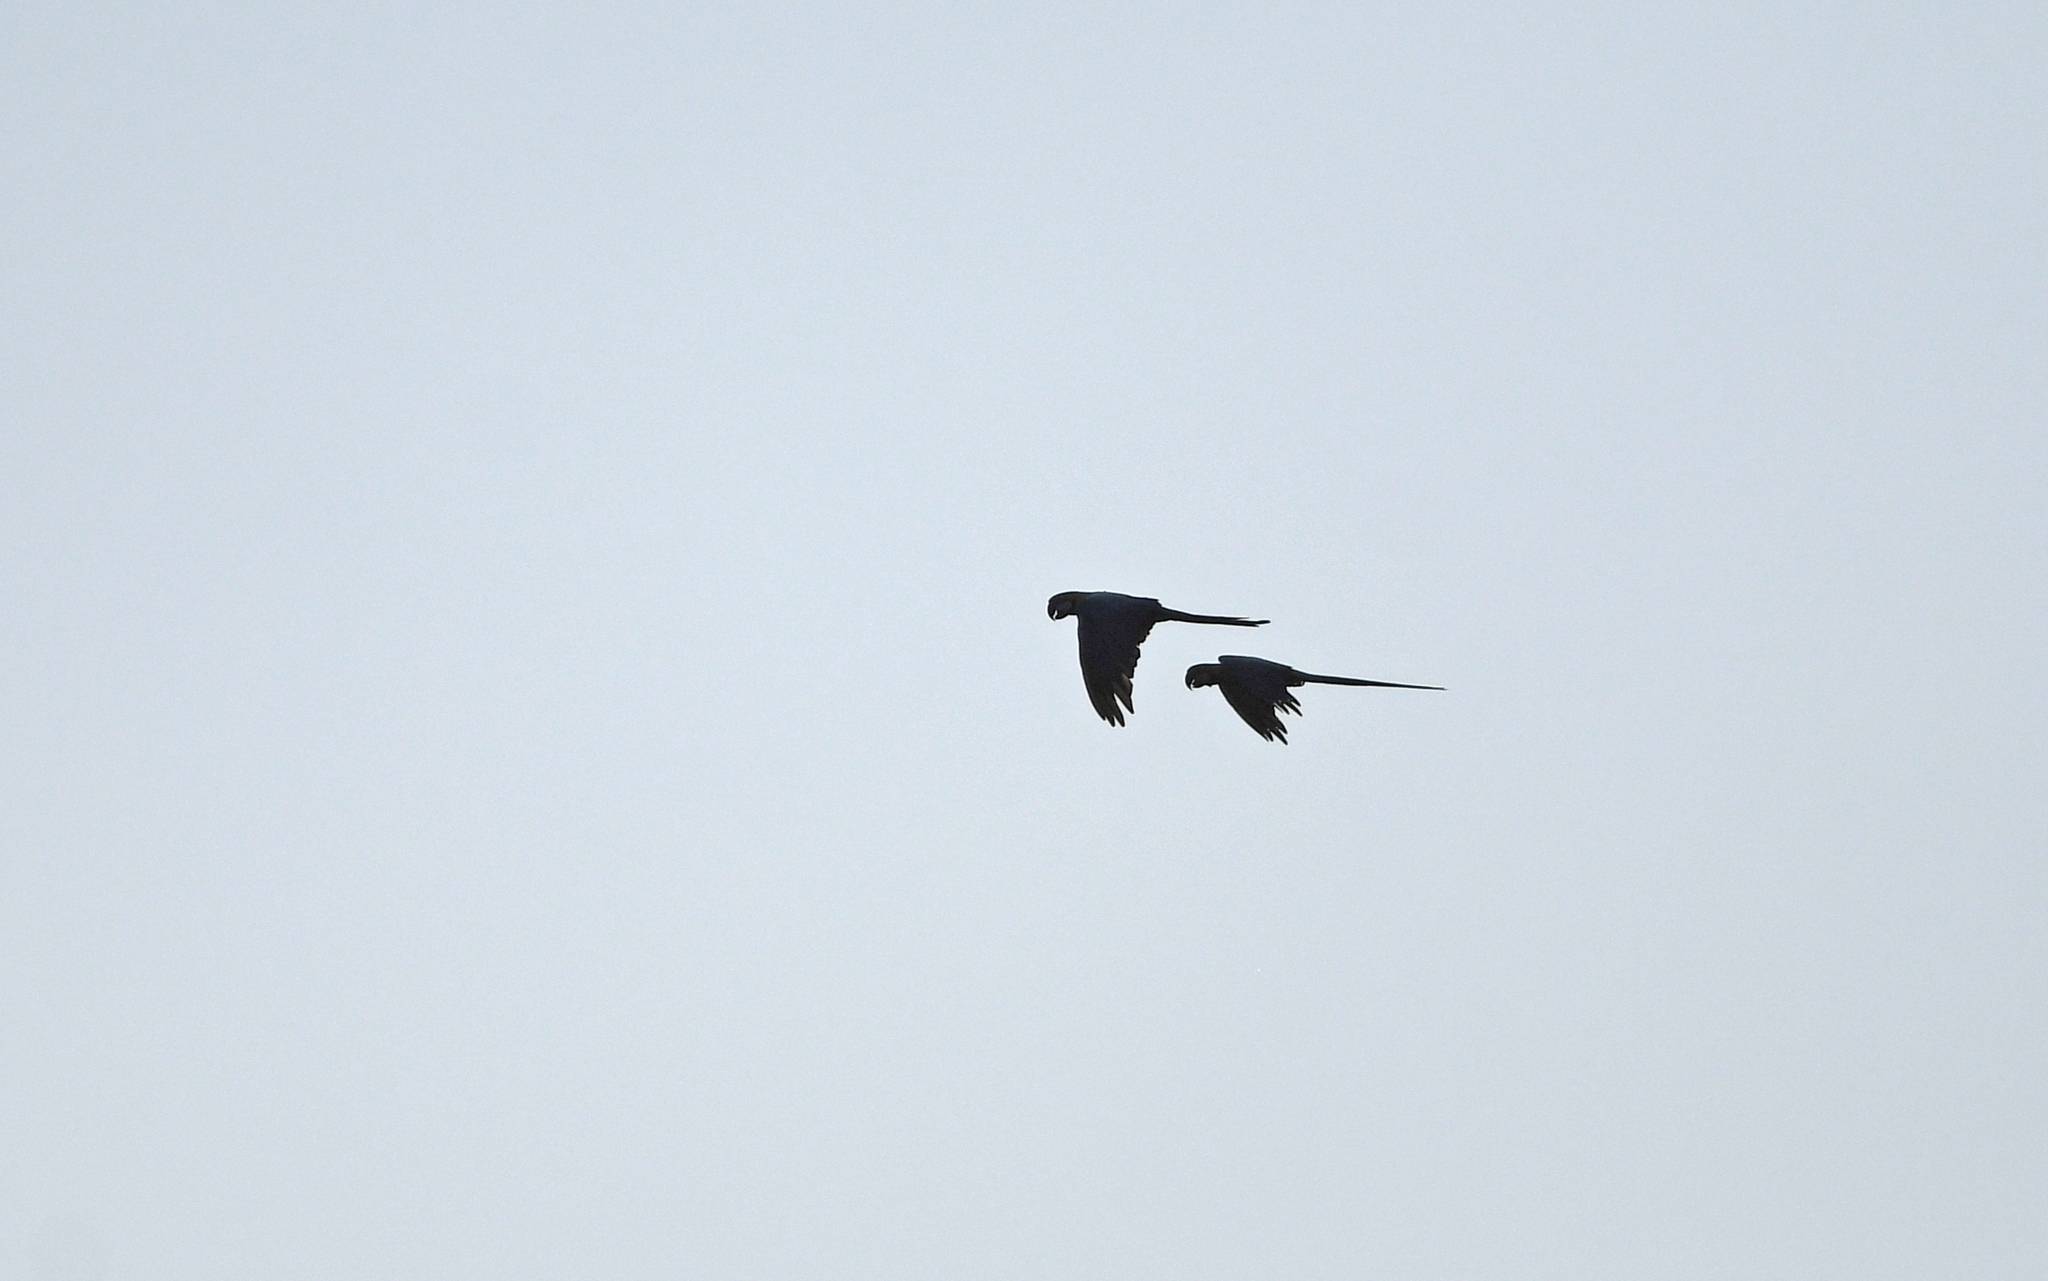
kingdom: Animalia
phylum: Chordata
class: Aves
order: Psittaciformes
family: Psittacidae
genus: Ara
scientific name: Ara ararauna
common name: Blue-and-yellow macaw
